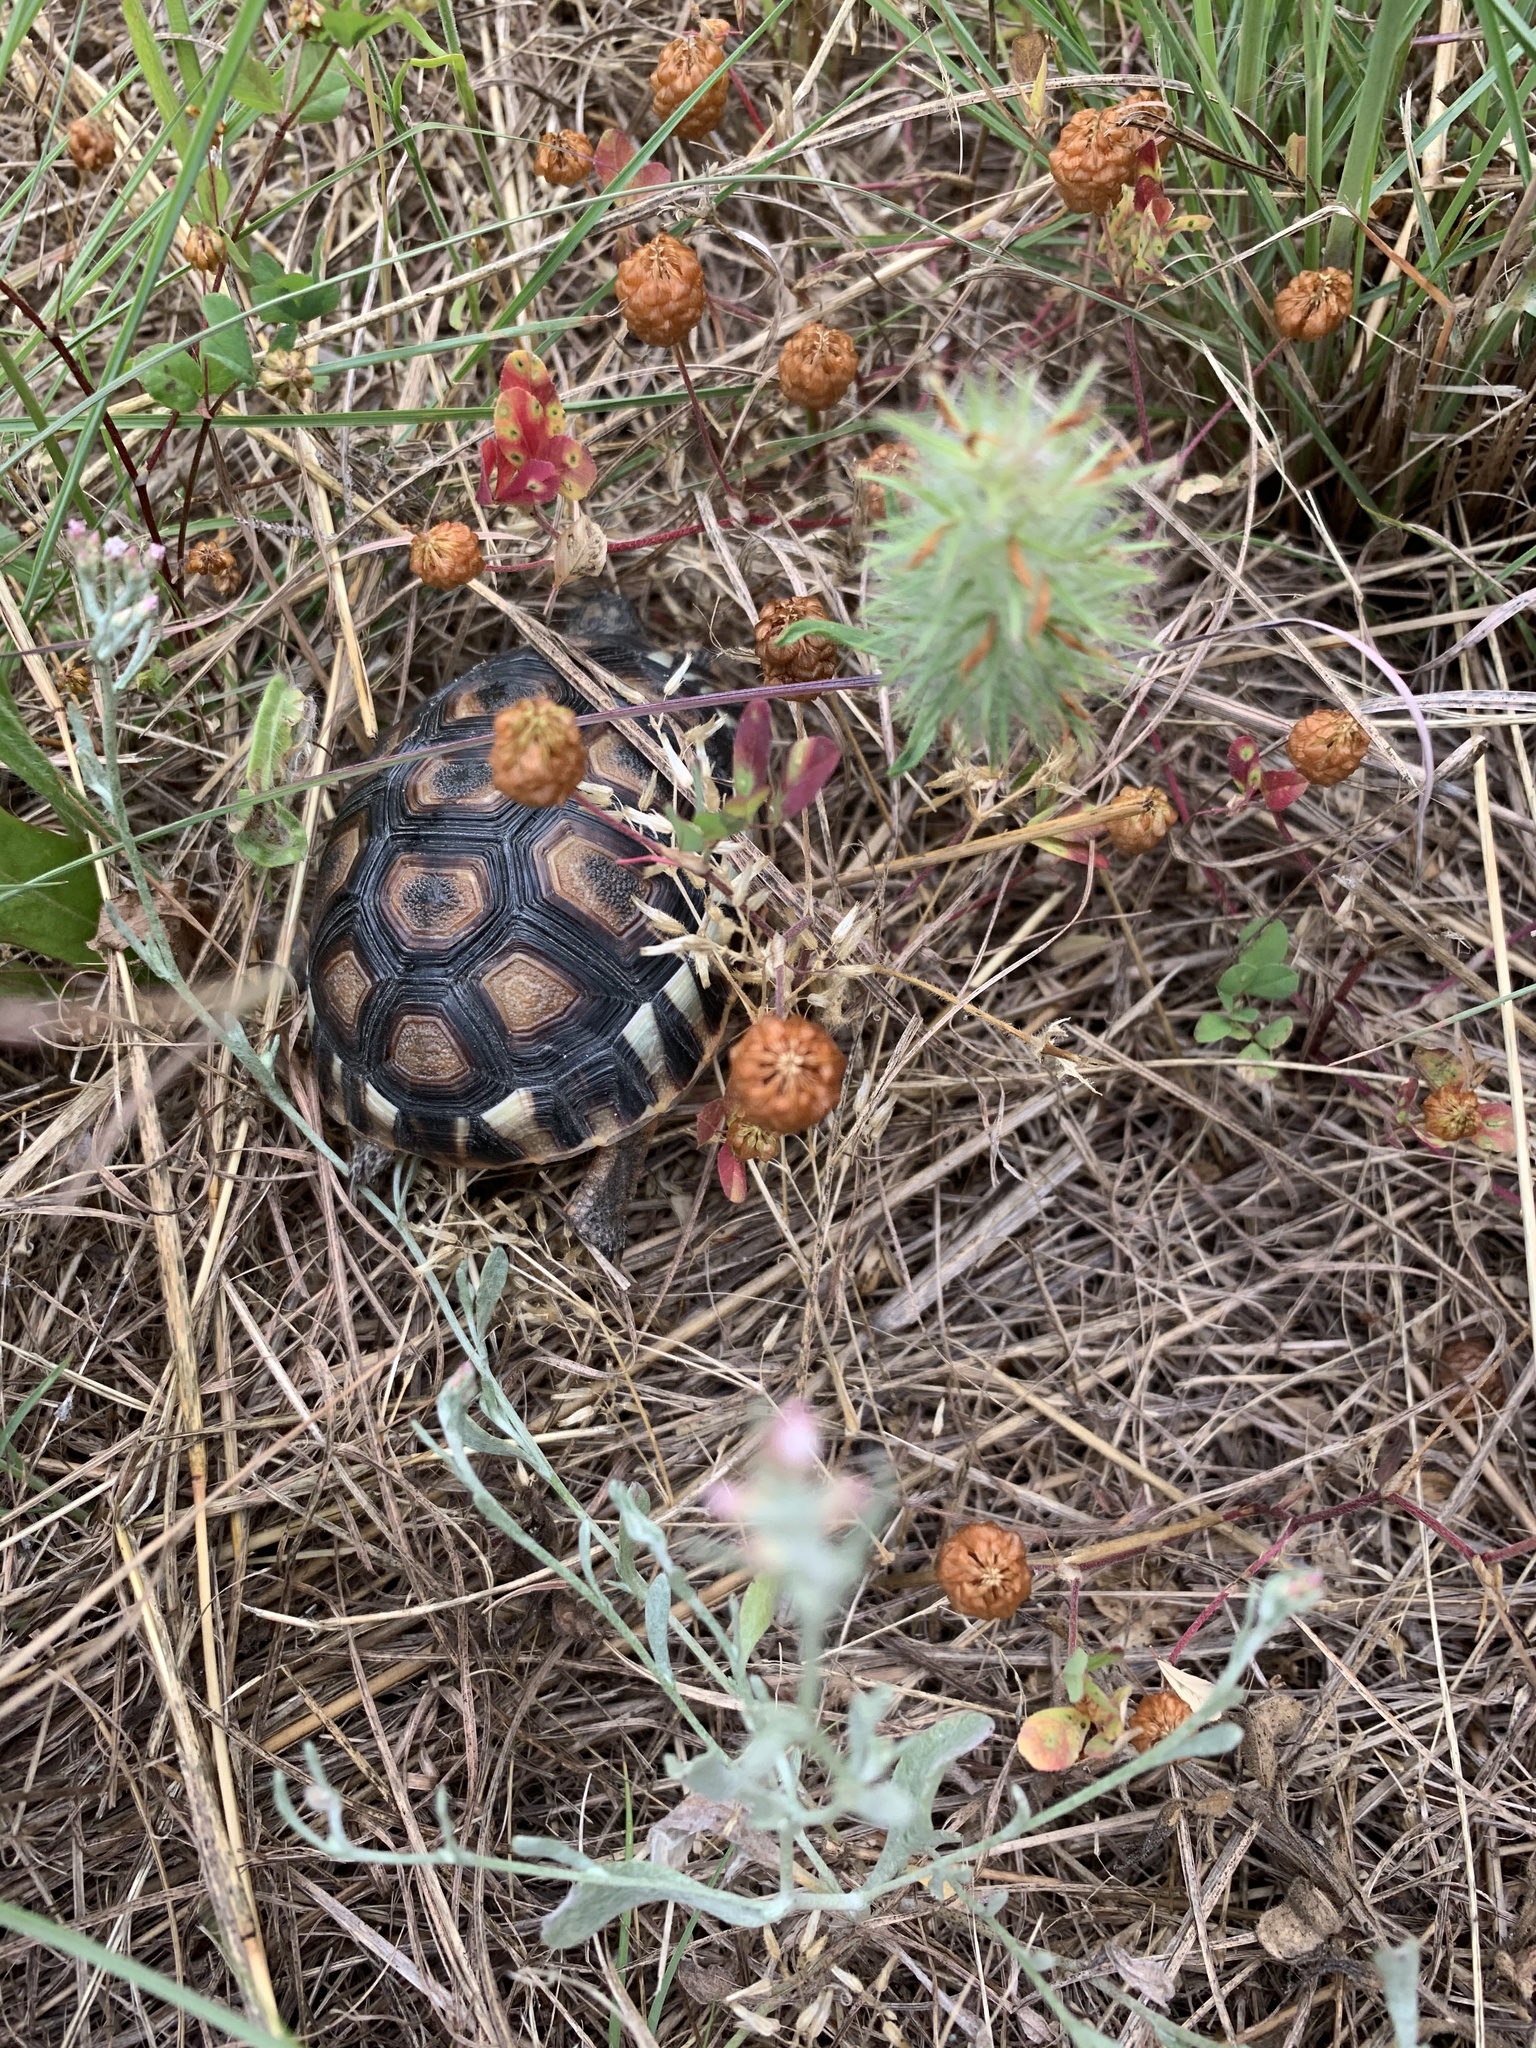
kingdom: Animalia
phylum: Chordata
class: Testudines
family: Testudinidae
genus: Chersina
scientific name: Chersina angulata
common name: South african bowsprit tortoise
